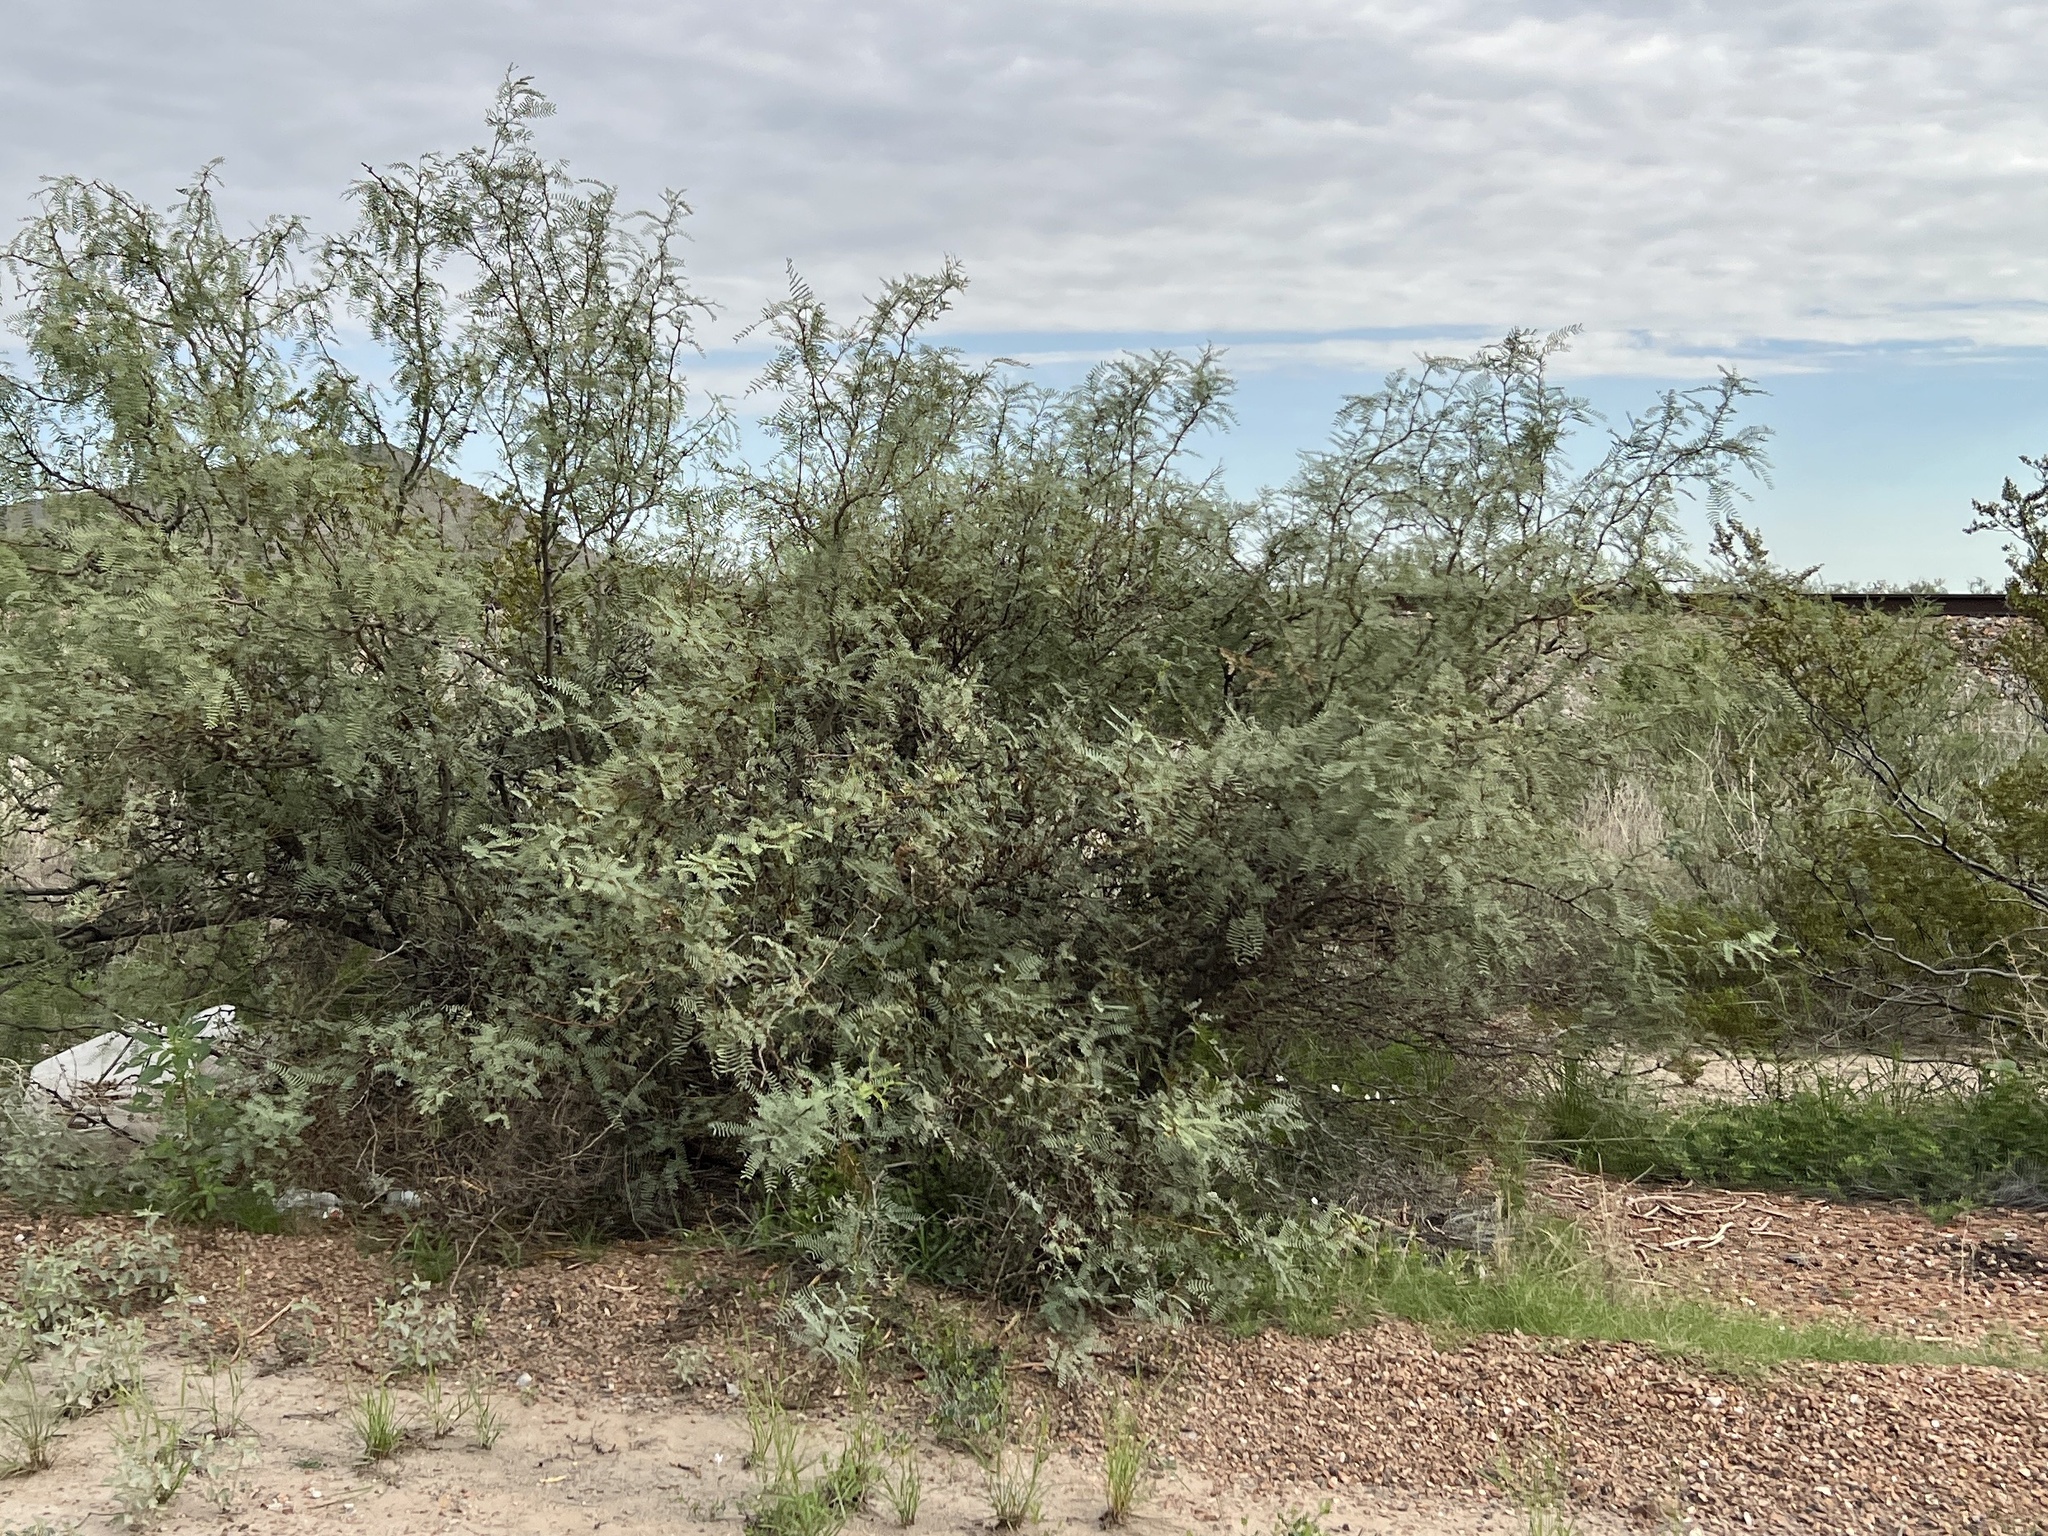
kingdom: Plantae
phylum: Tracheophyta
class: Magnoliopsida
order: Fabales
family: Fabaceae
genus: Prosopis
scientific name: Prosopis glandulosa
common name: Honey mesquite
